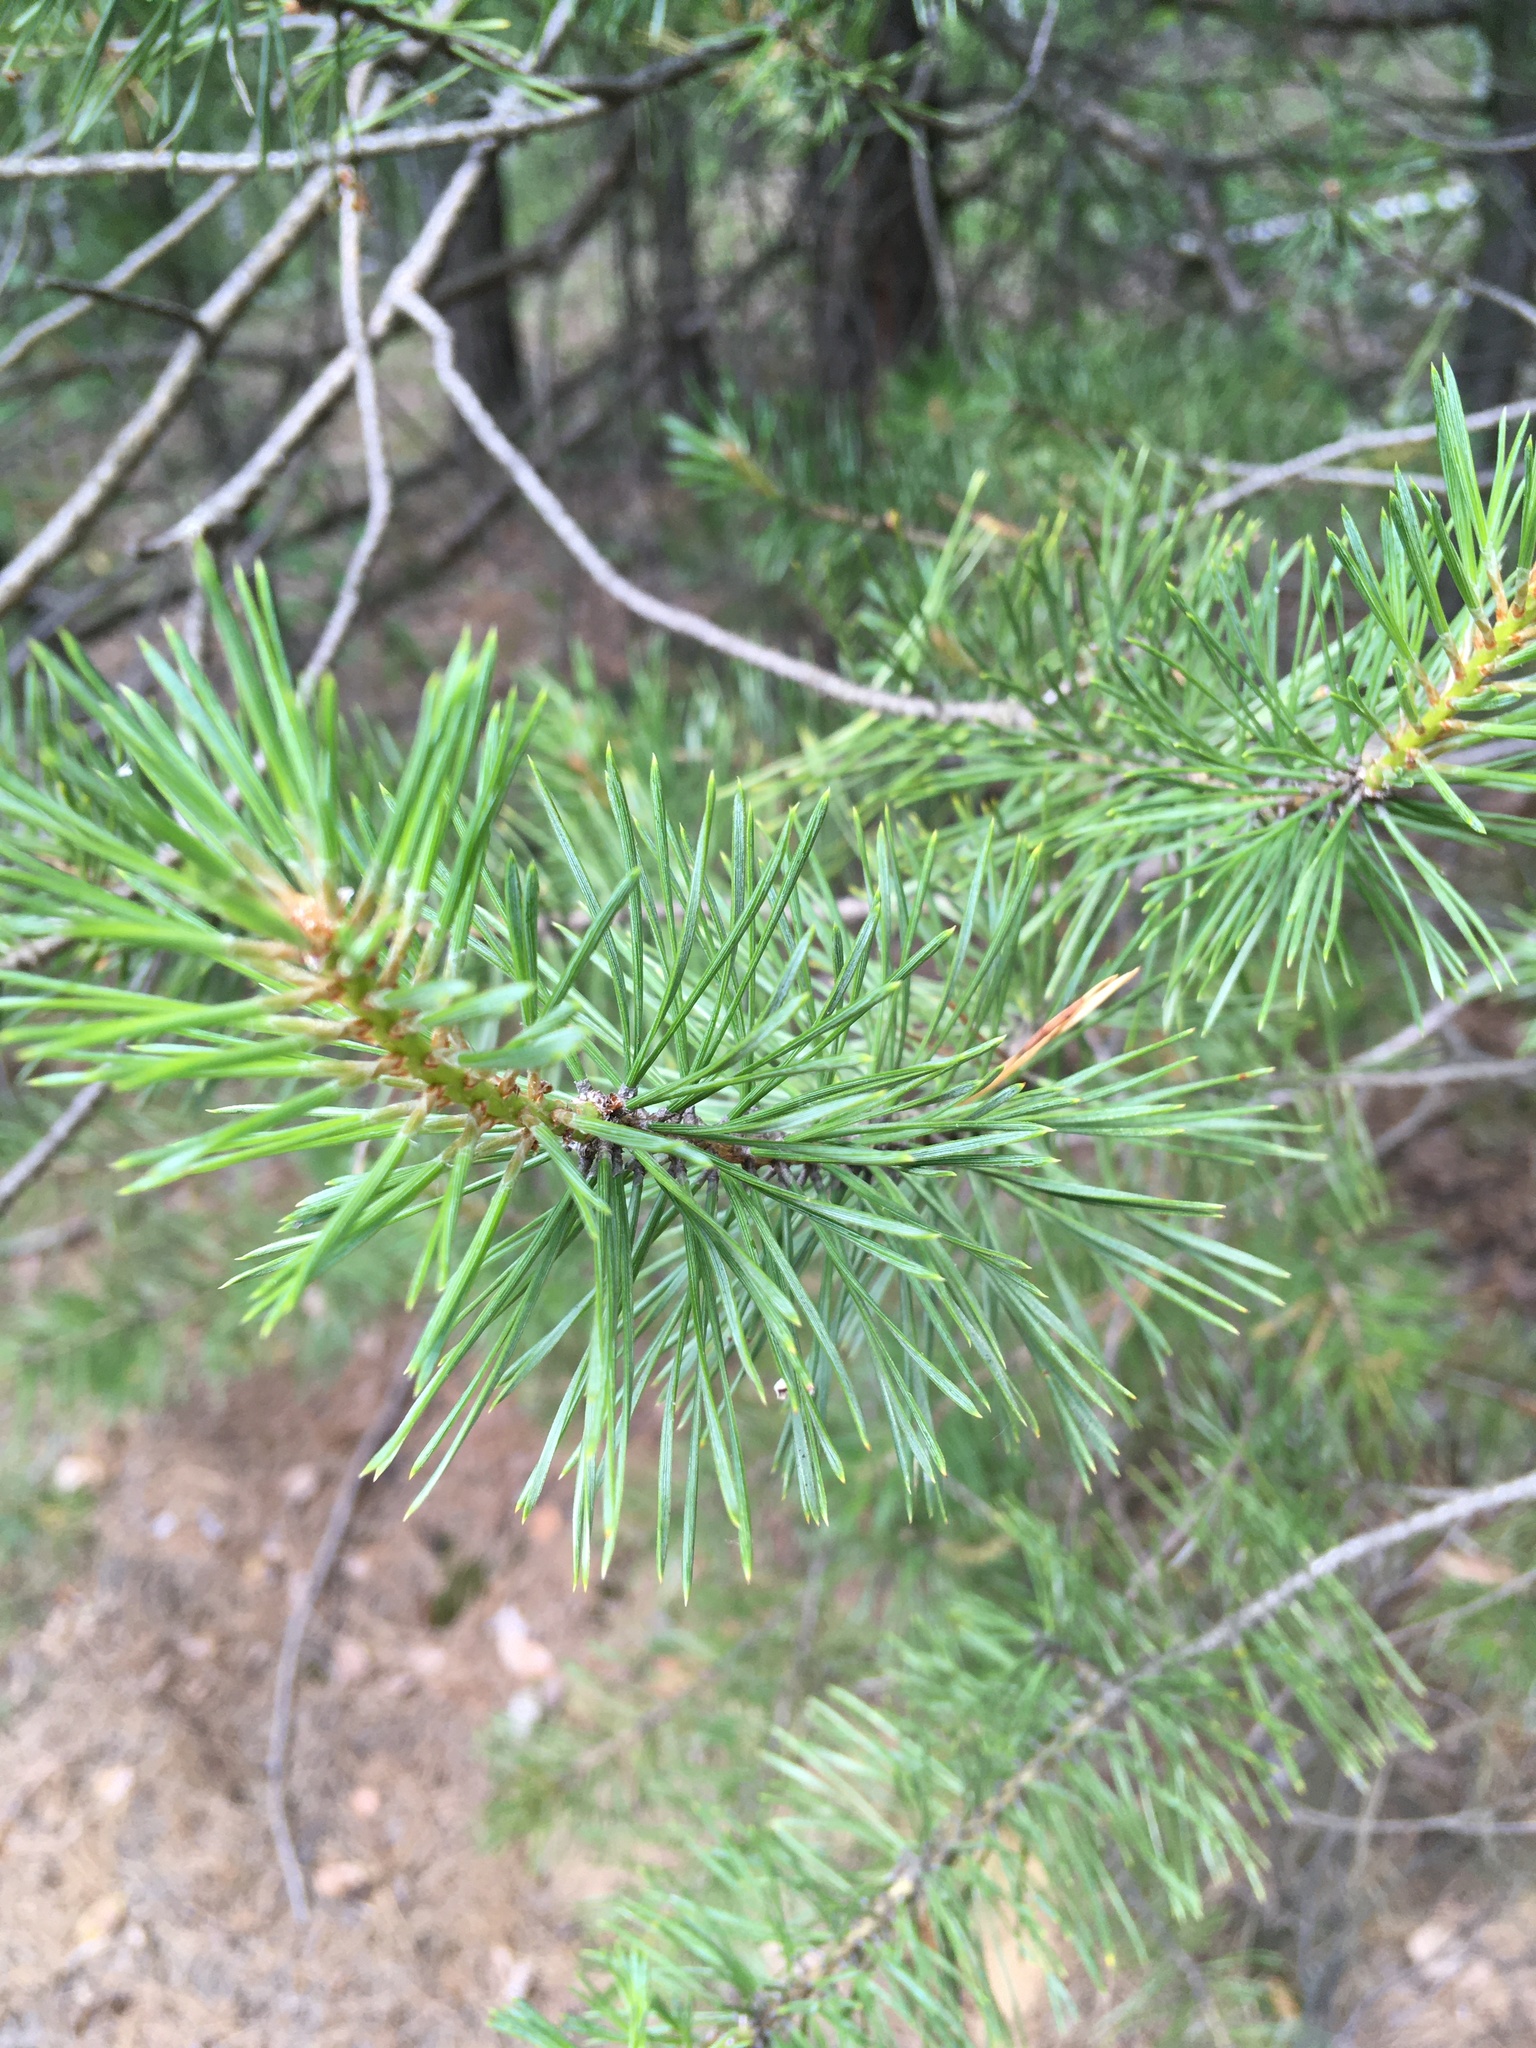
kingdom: Plantae
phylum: Tracheophyta
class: Pinopsida
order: Pinales
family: Pinaceae
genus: Pinus
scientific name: Pinus sylvestris
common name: Scots pine
